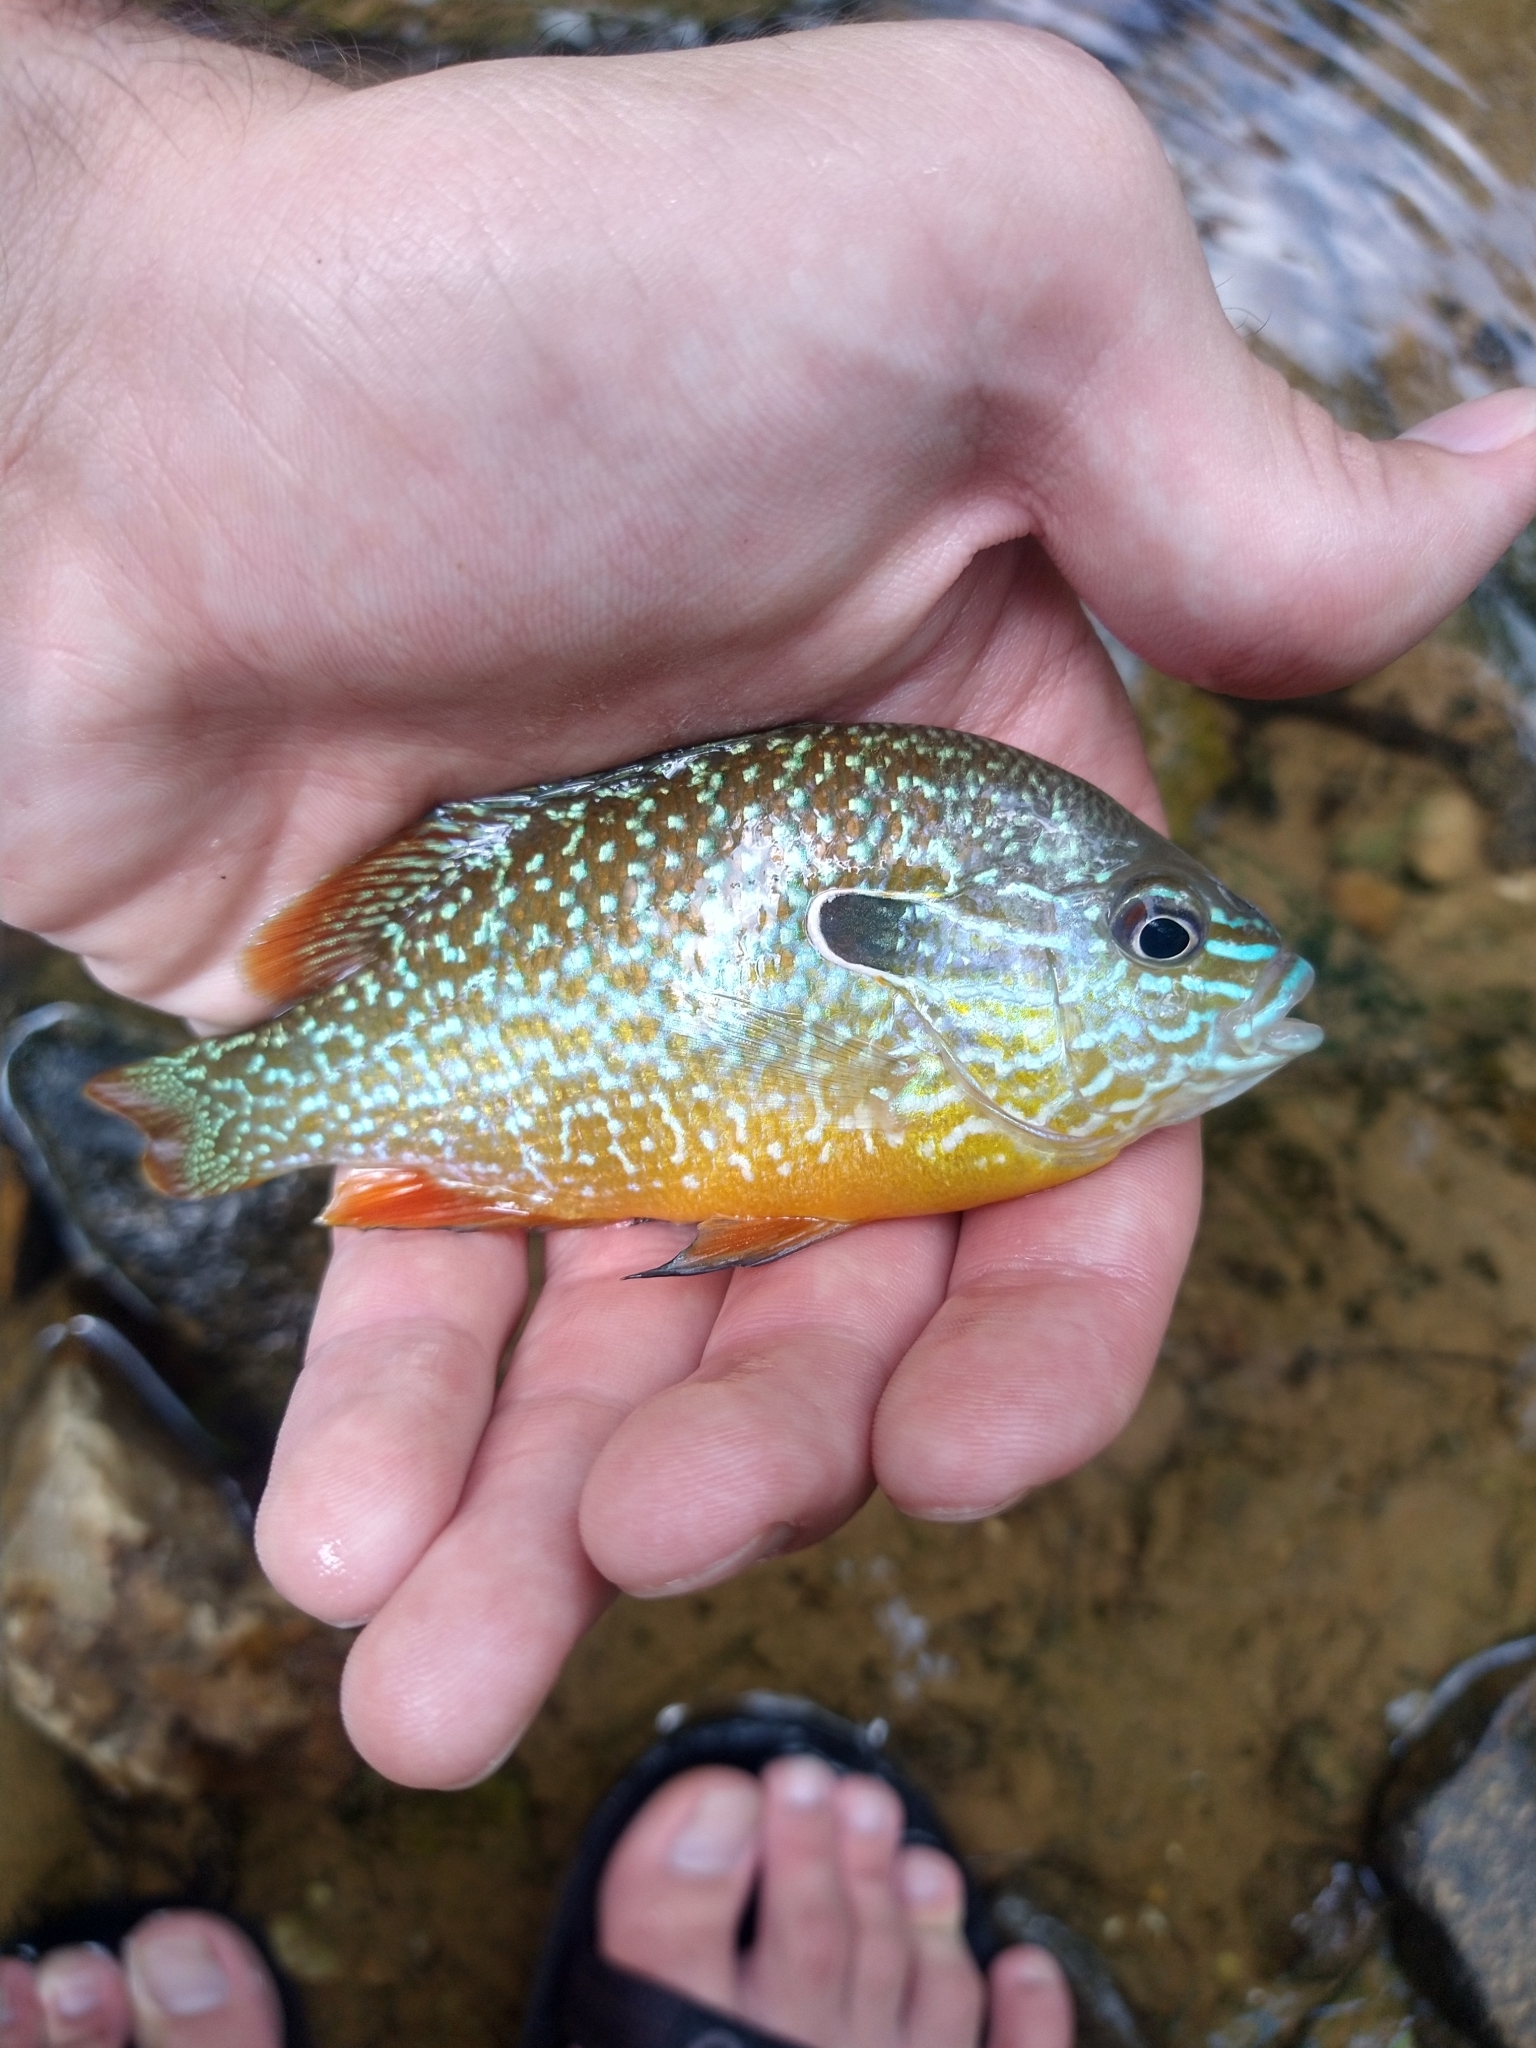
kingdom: Animalia
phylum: Chordata
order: Perciformes
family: Centrarchidae
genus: Lepomis
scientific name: Lepomis megalotis
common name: Longear sunfish
